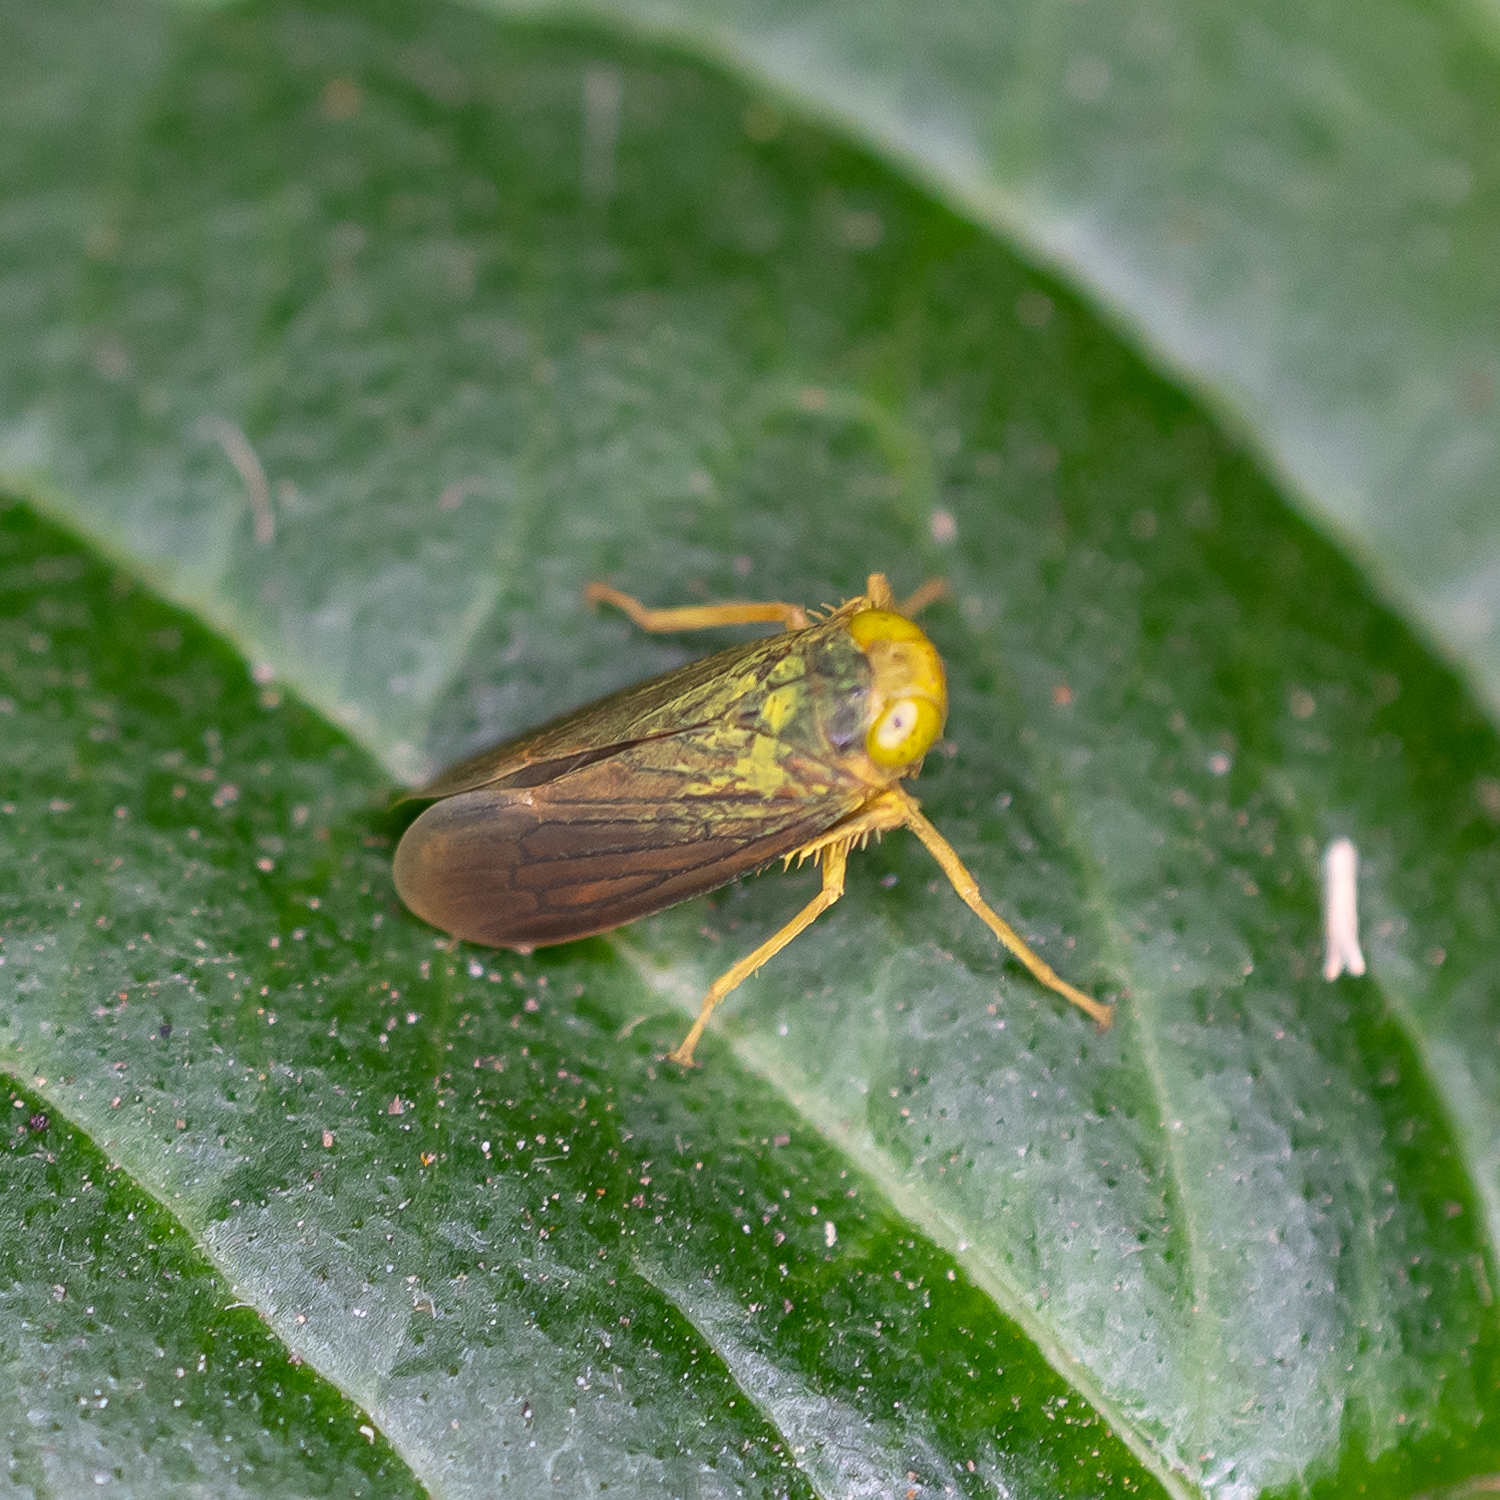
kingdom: Animalia
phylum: Arthropoda
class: Insecta
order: Hemiptera
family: Cicadellidae
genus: Jikradia
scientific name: Jikradia olitoria
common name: Coppery leafhopper
